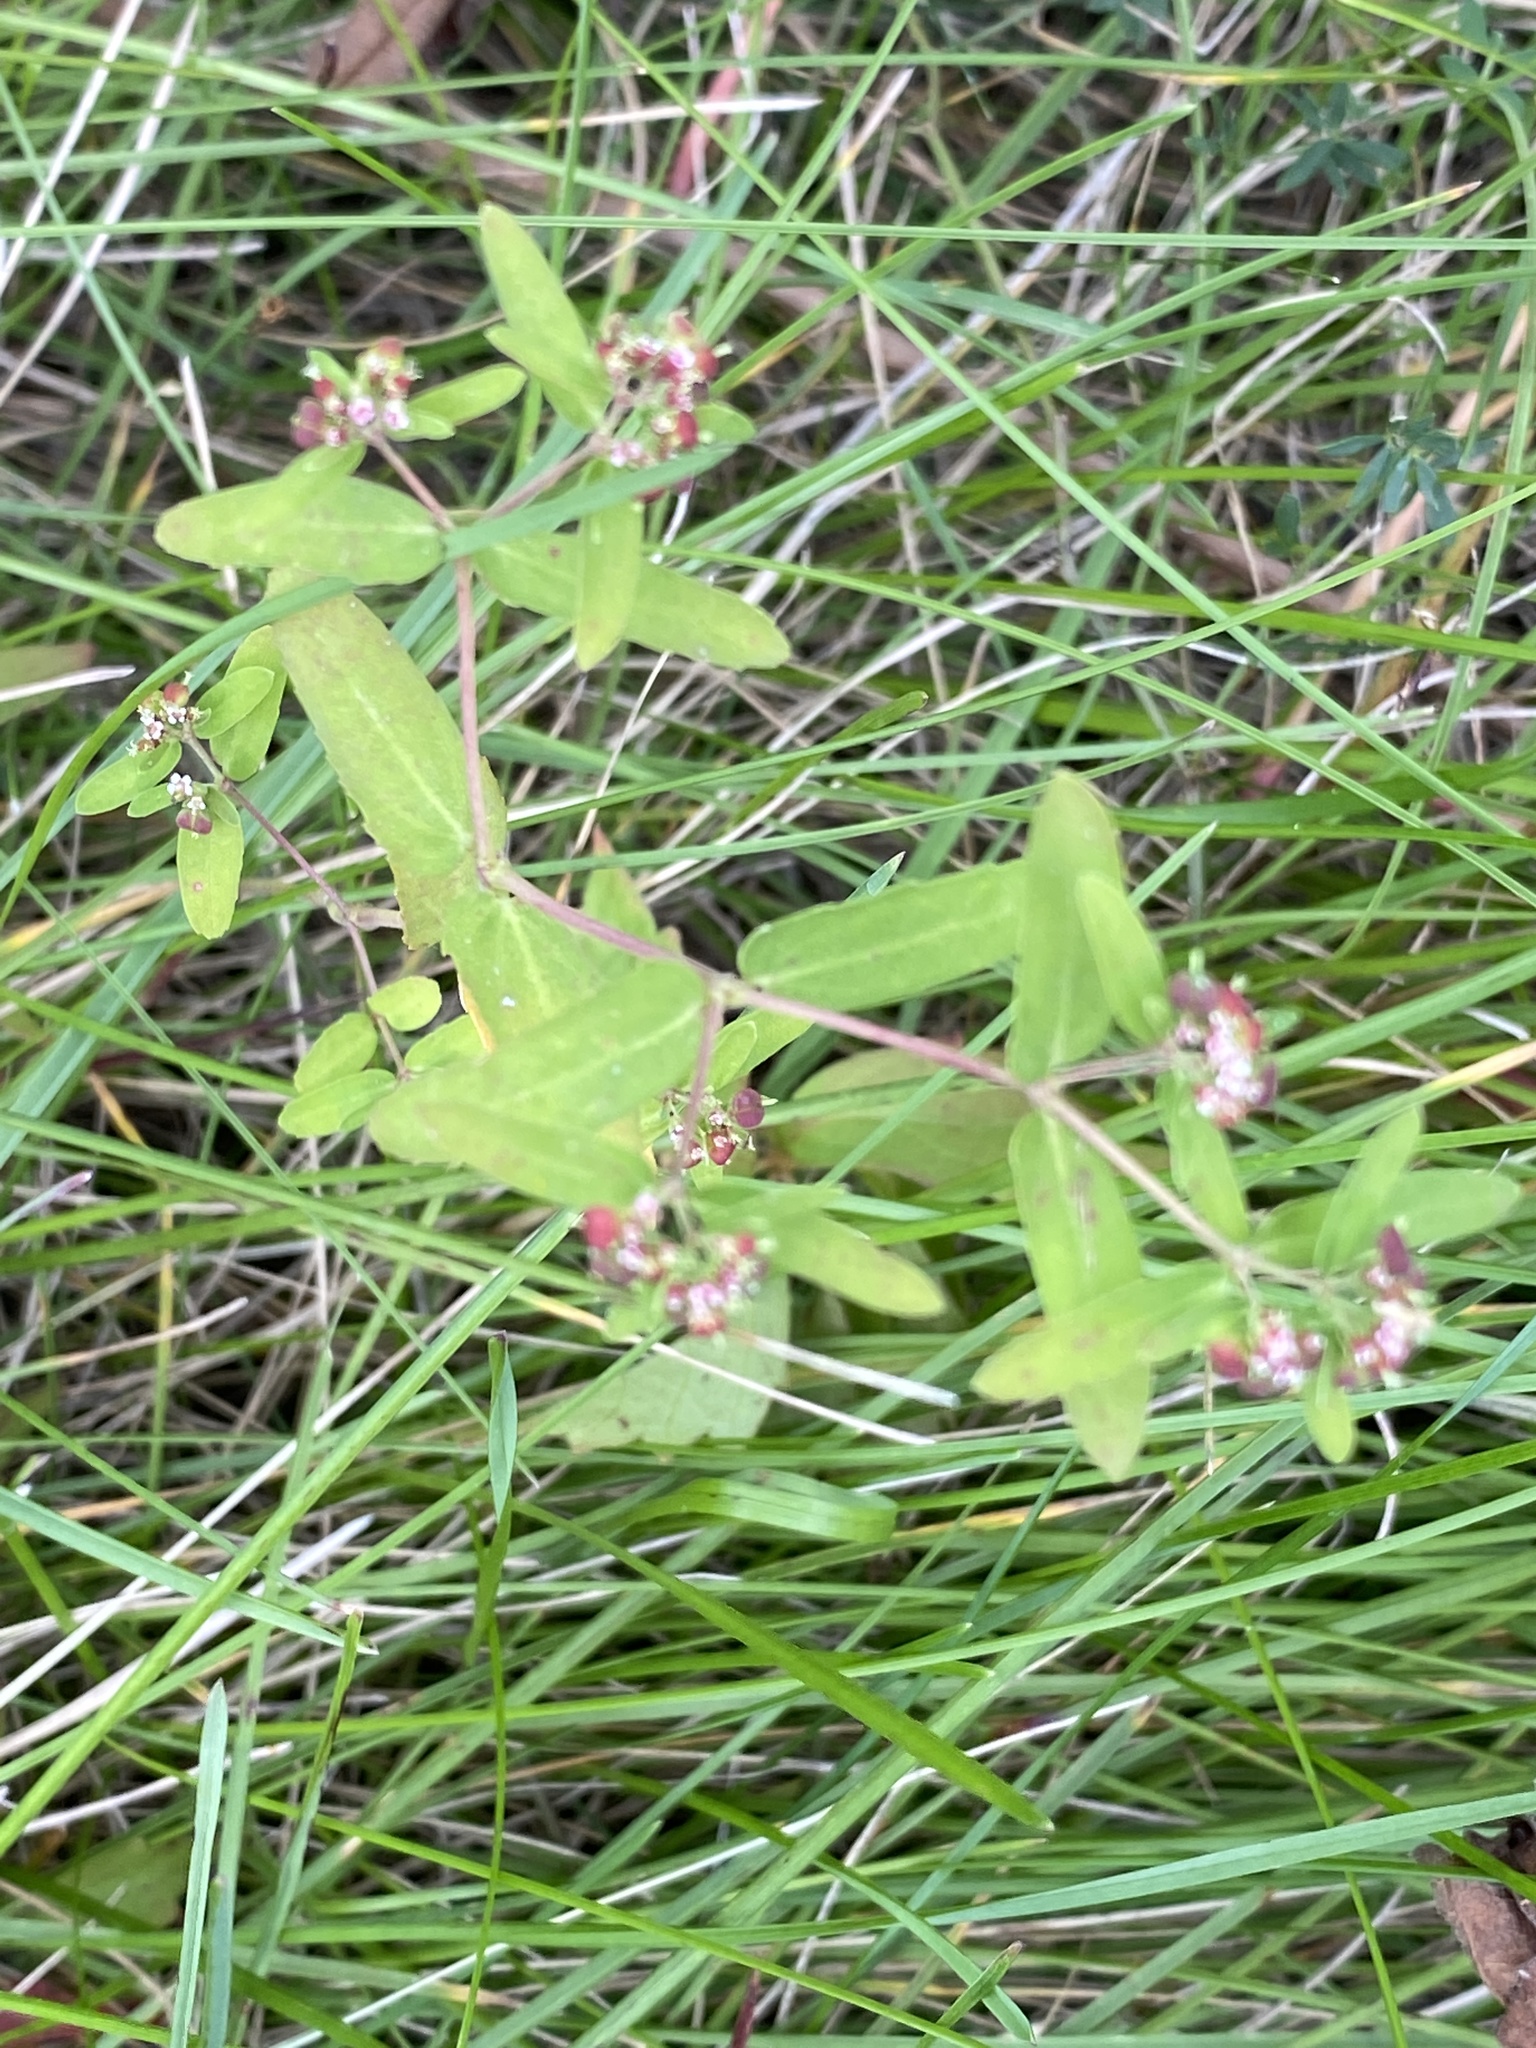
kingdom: Plantae
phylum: Tracheophyta
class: Magnoliopsida
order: Malpighiales
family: Euphorbiaceae
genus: Euphorbia
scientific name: Euphorbia nutans
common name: Eyebane
